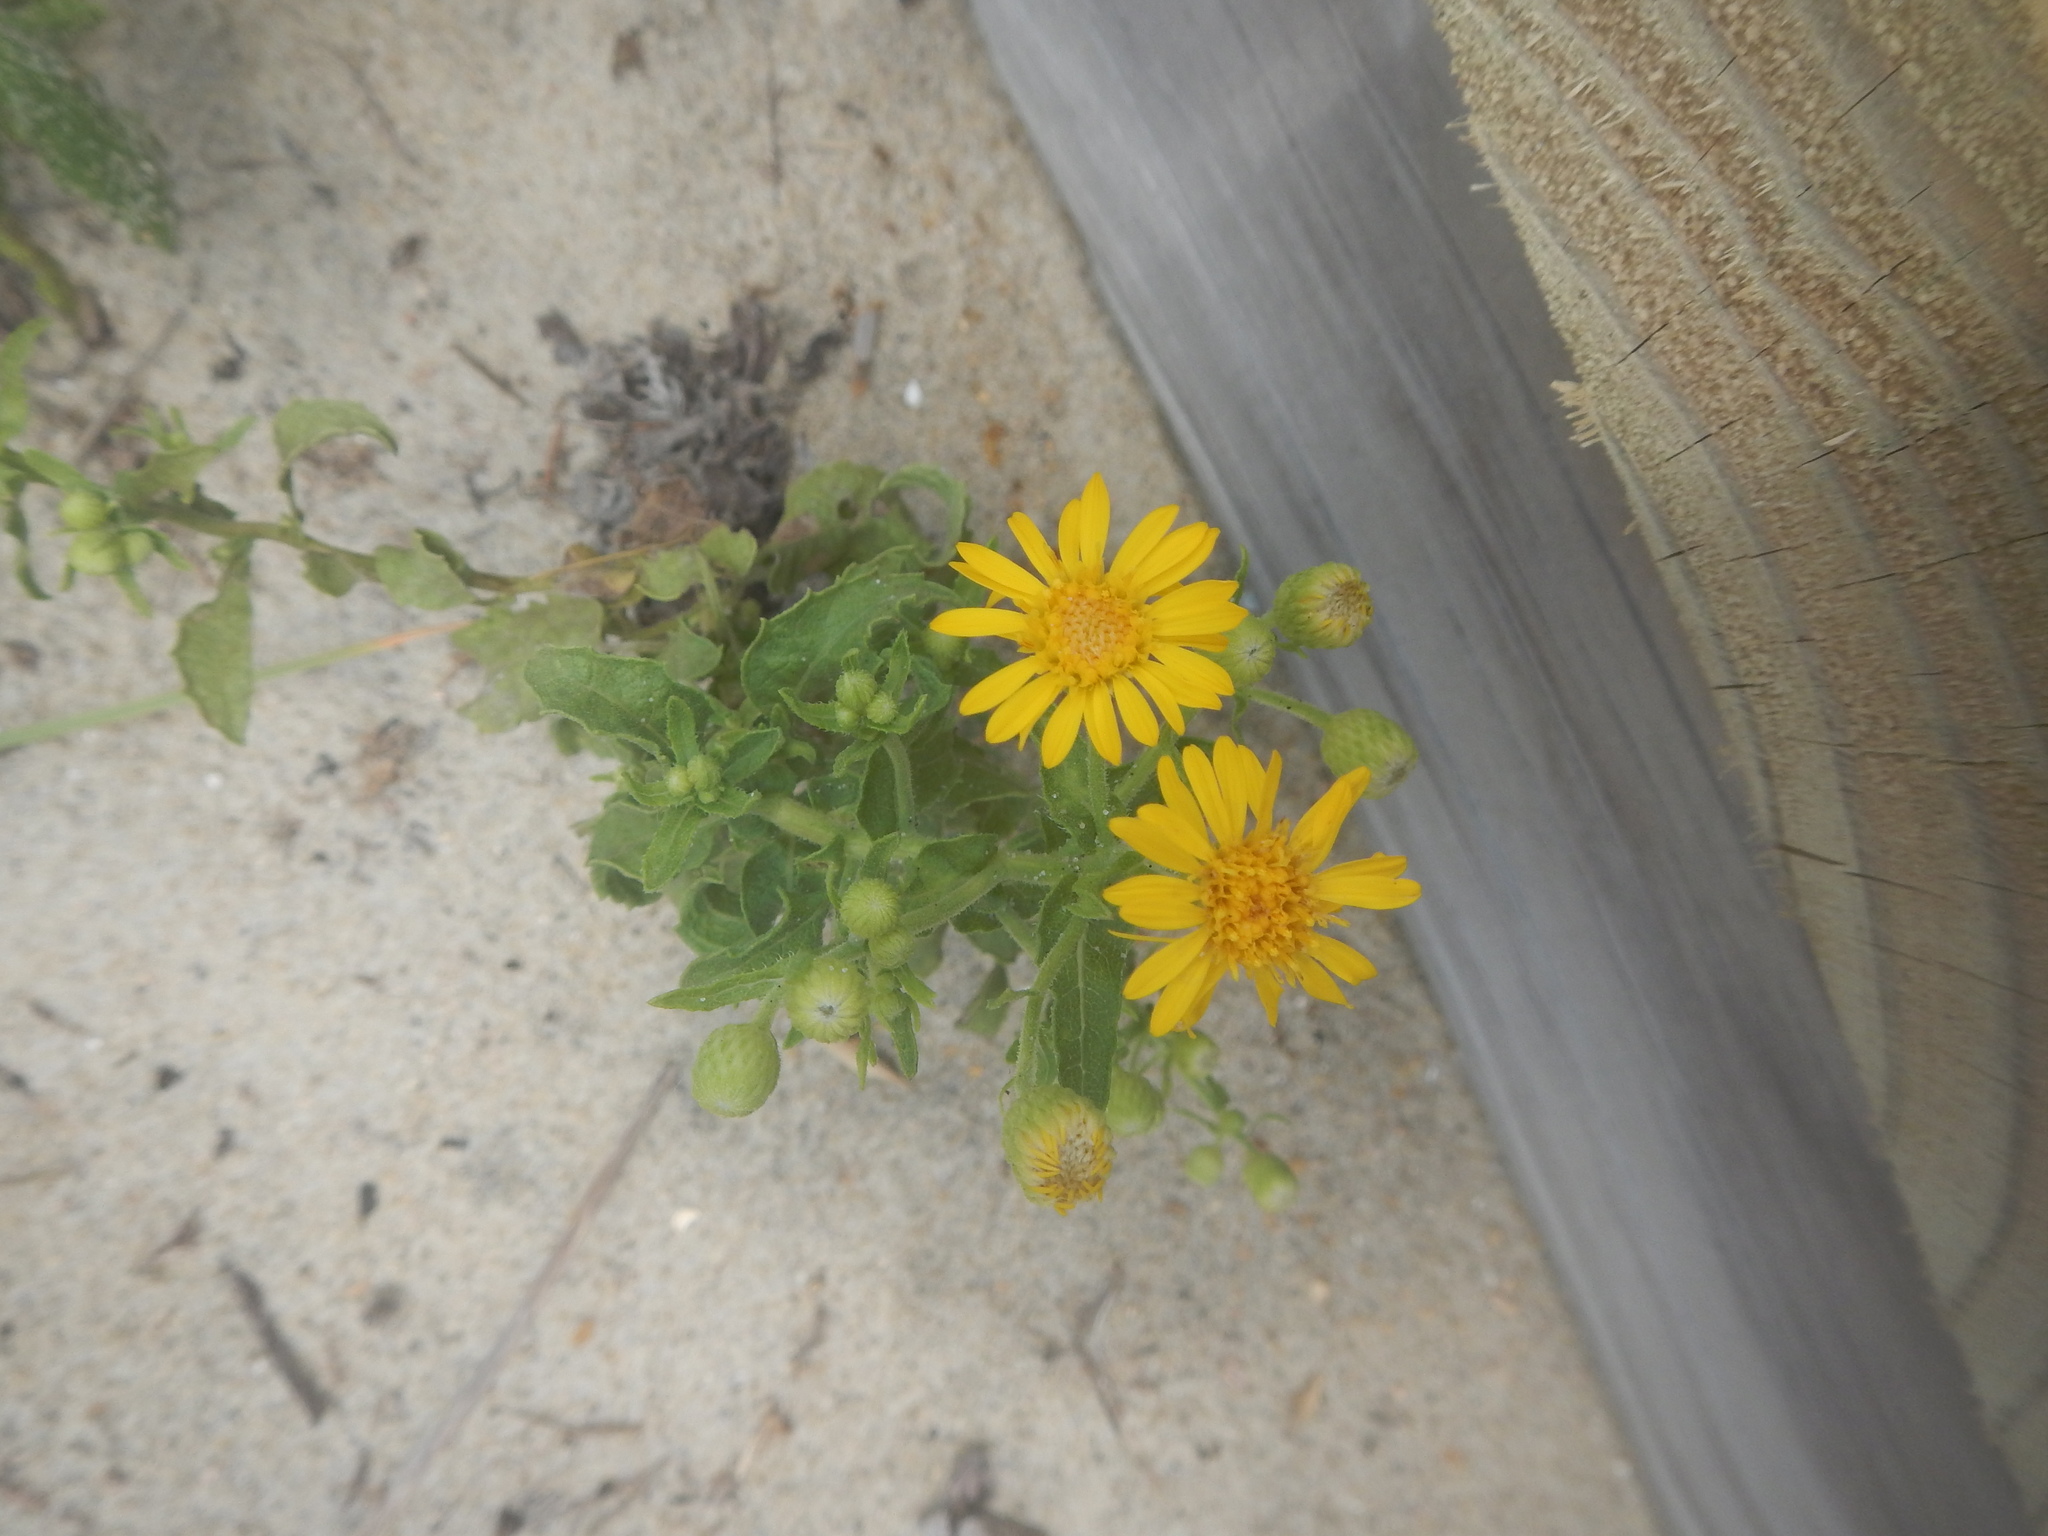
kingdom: Plantae
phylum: Tracheophyta
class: Magnoliopsida
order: Asterales
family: Asteraceae
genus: Heterotheca
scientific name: Heterotheca subaxillaris
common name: Camphorweed
